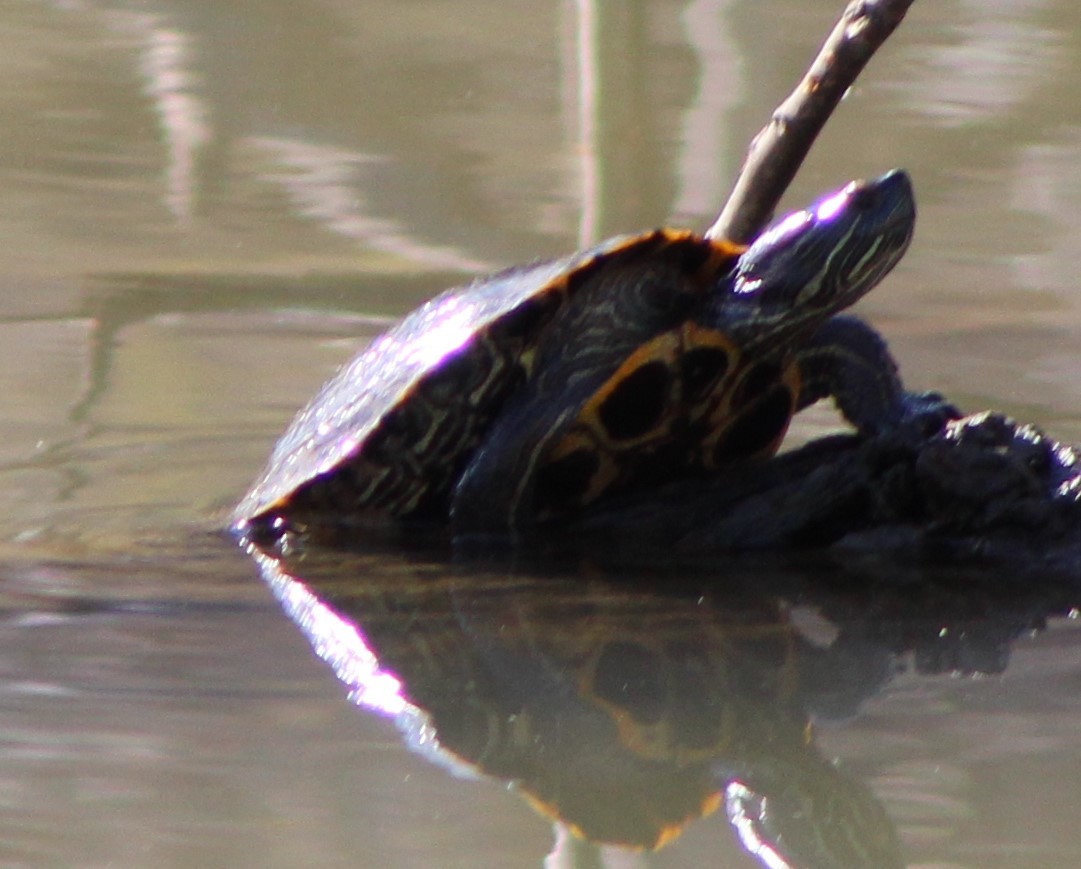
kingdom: Animalia
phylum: Chordata
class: Testudines
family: Emydidae
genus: Trachemys
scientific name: Trachemys scripta
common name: Slider
